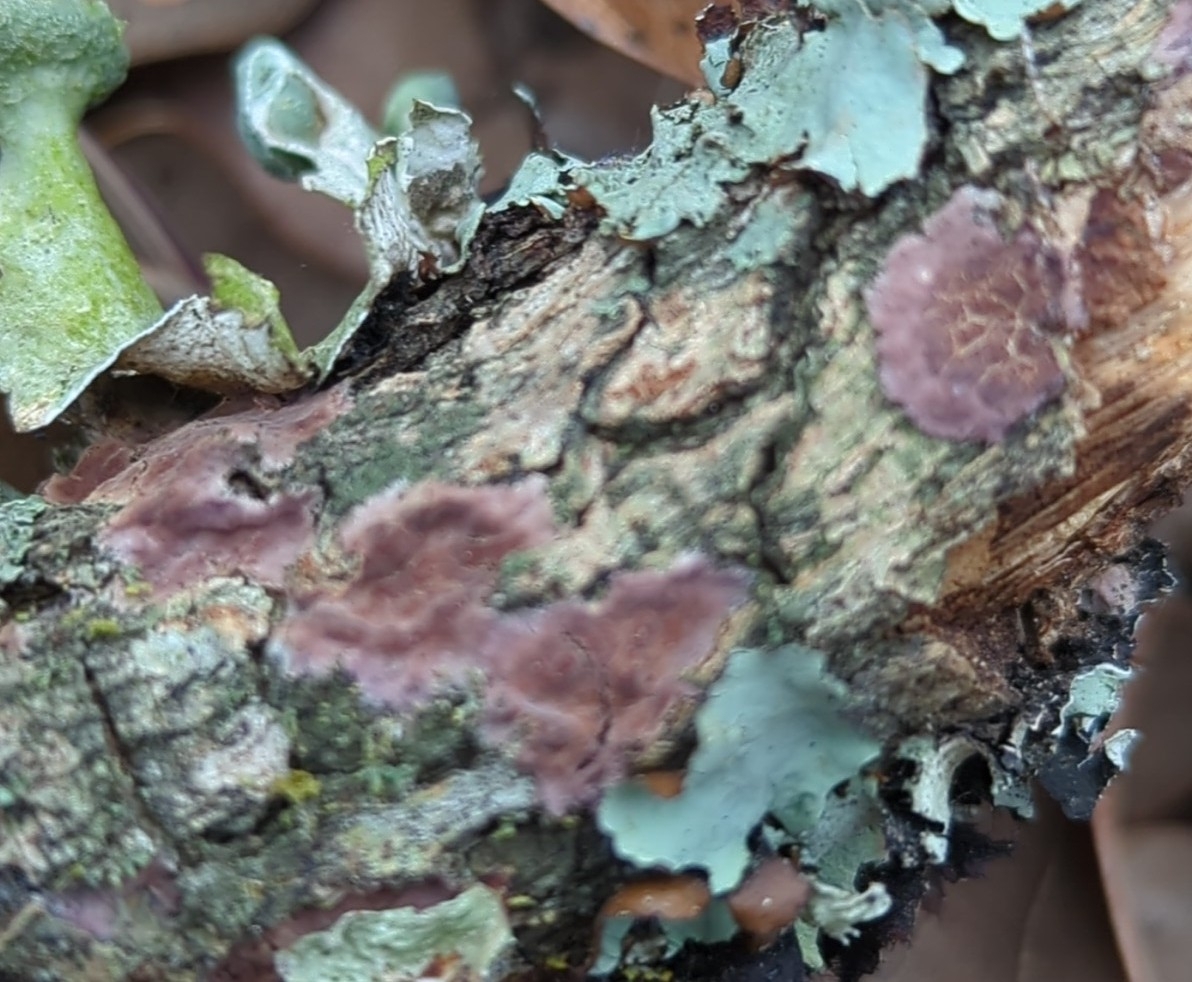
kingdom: Fungi
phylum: Basidiomycota
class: Agaricomycetes
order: Polyporales
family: Phanerochaetaceae
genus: Phlebiopsis
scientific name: Phlebiopsis crassa
